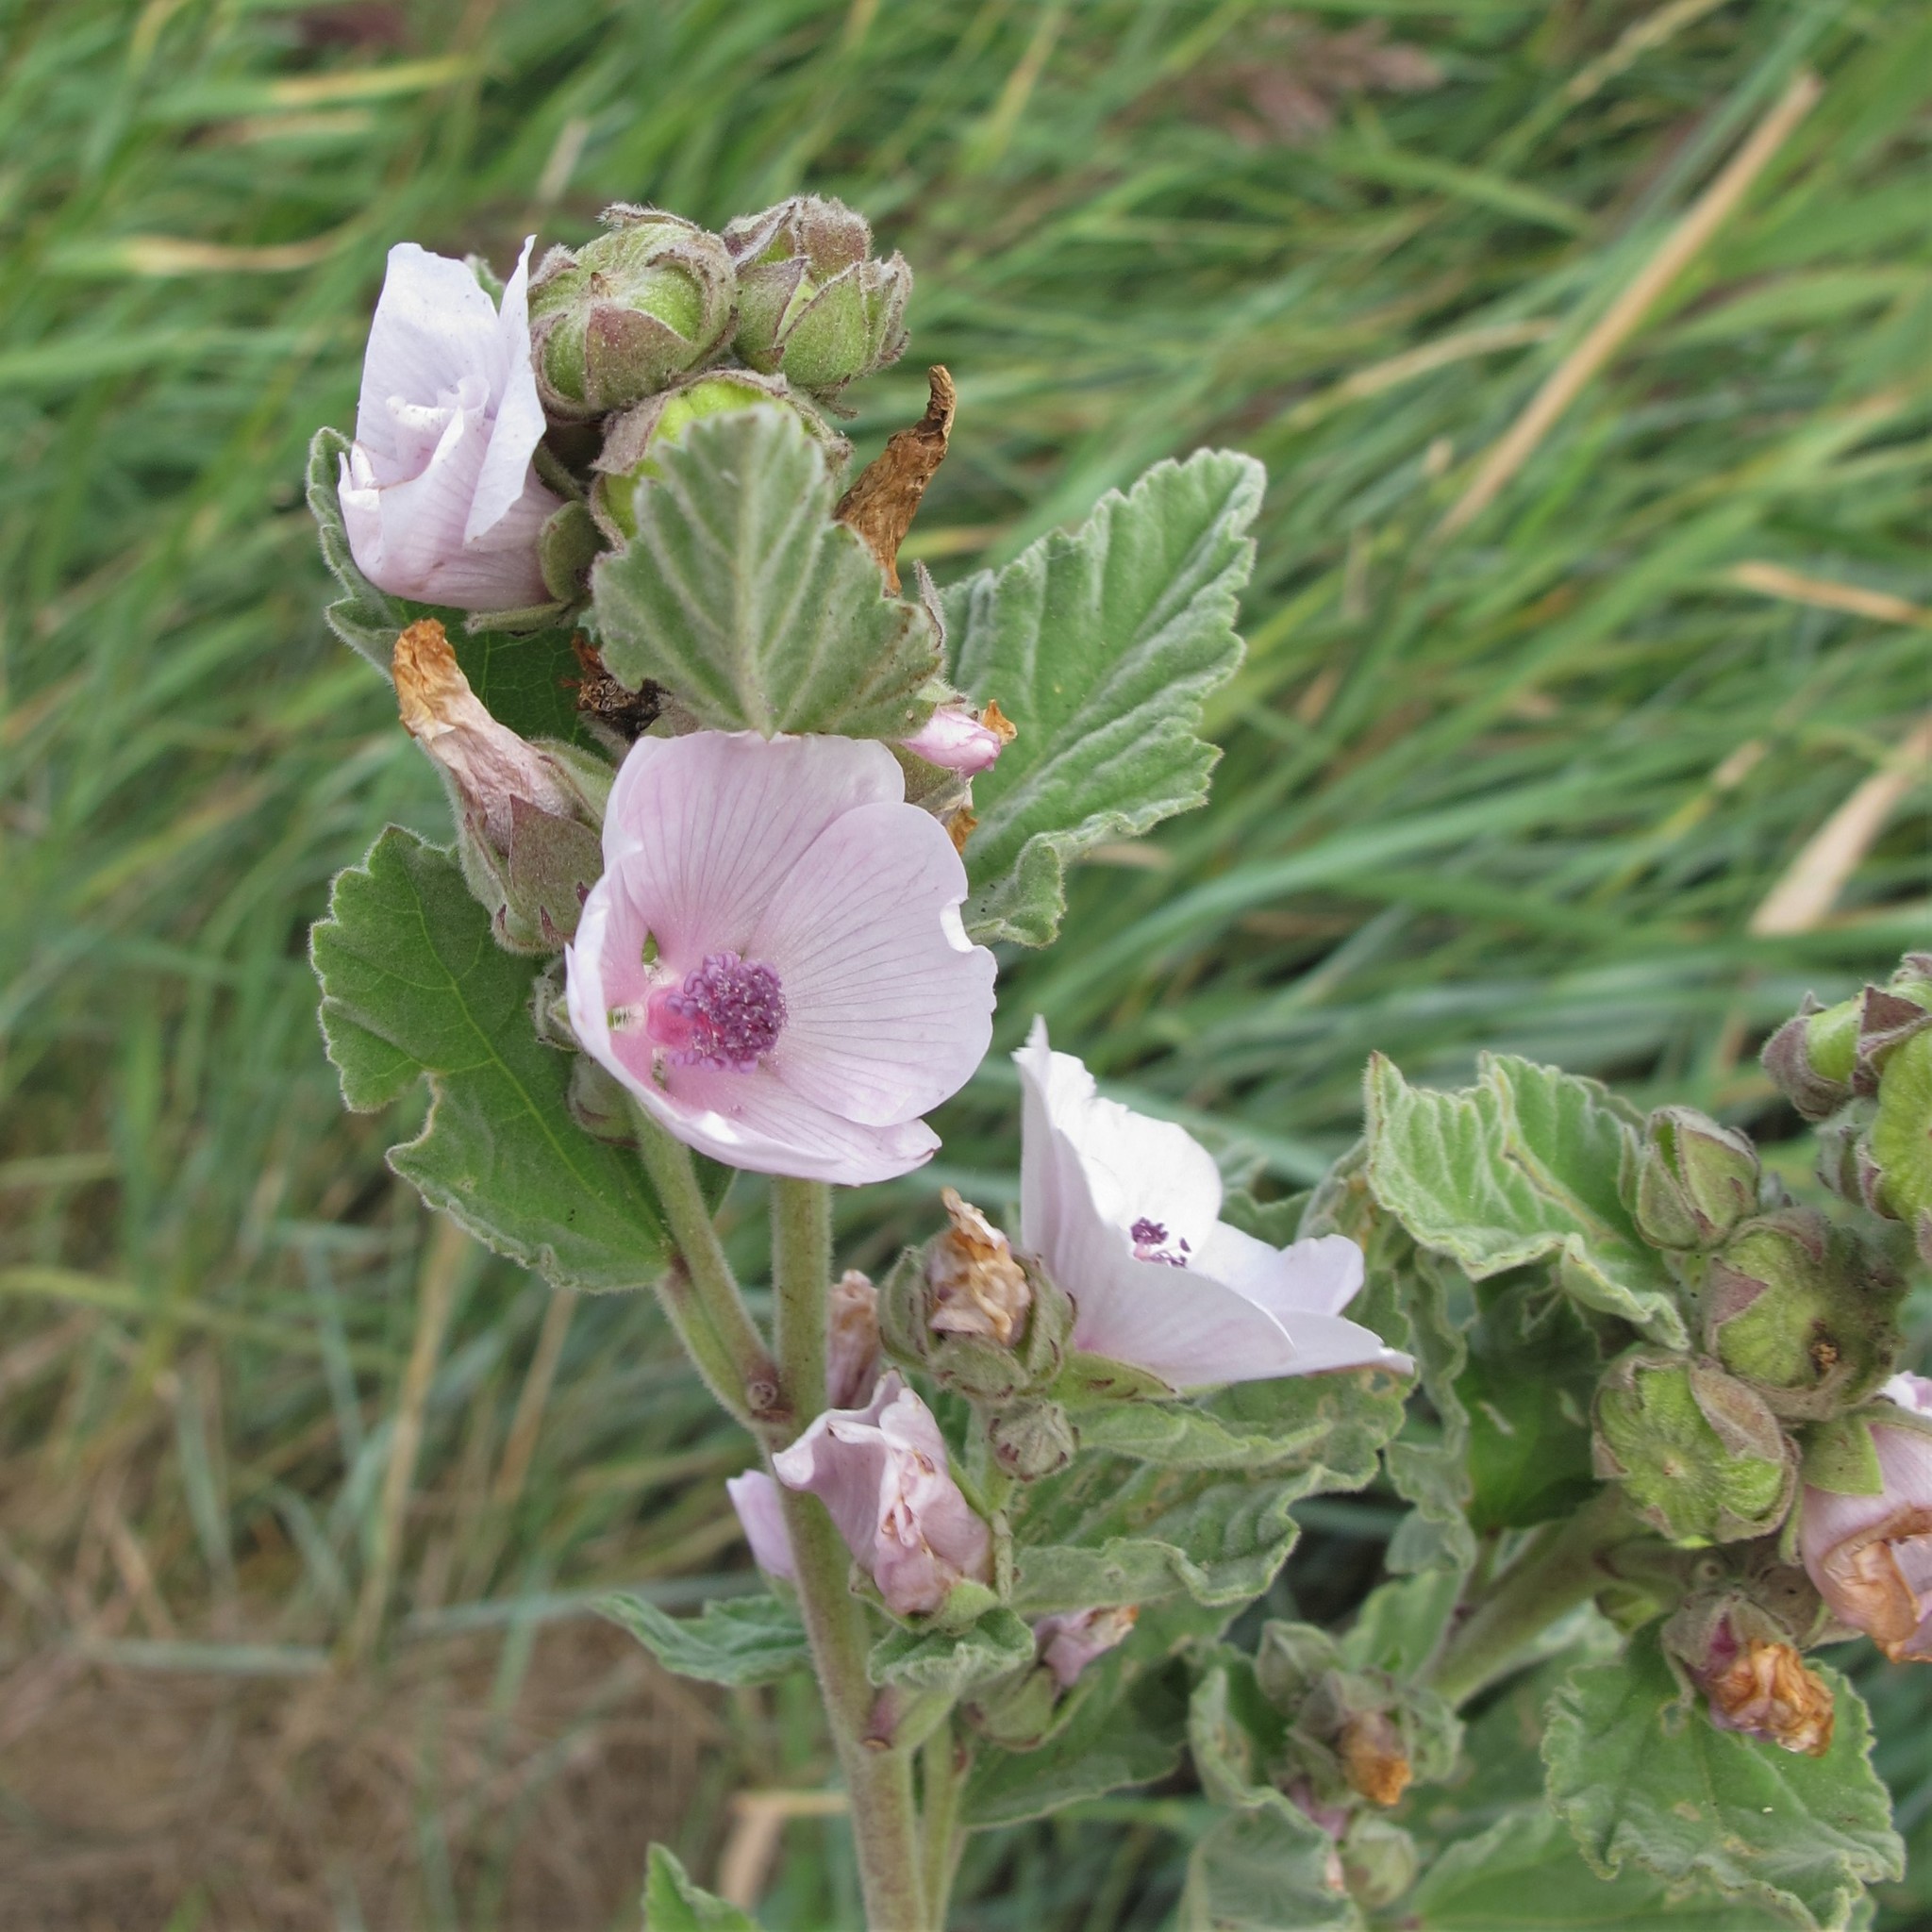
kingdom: Plantae
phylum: Tracheophyta
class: Magnoliopsida
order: Malvales
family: Malvaceae
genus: Althaea
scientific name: Althaea officinalis
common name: Marsh-mallow
